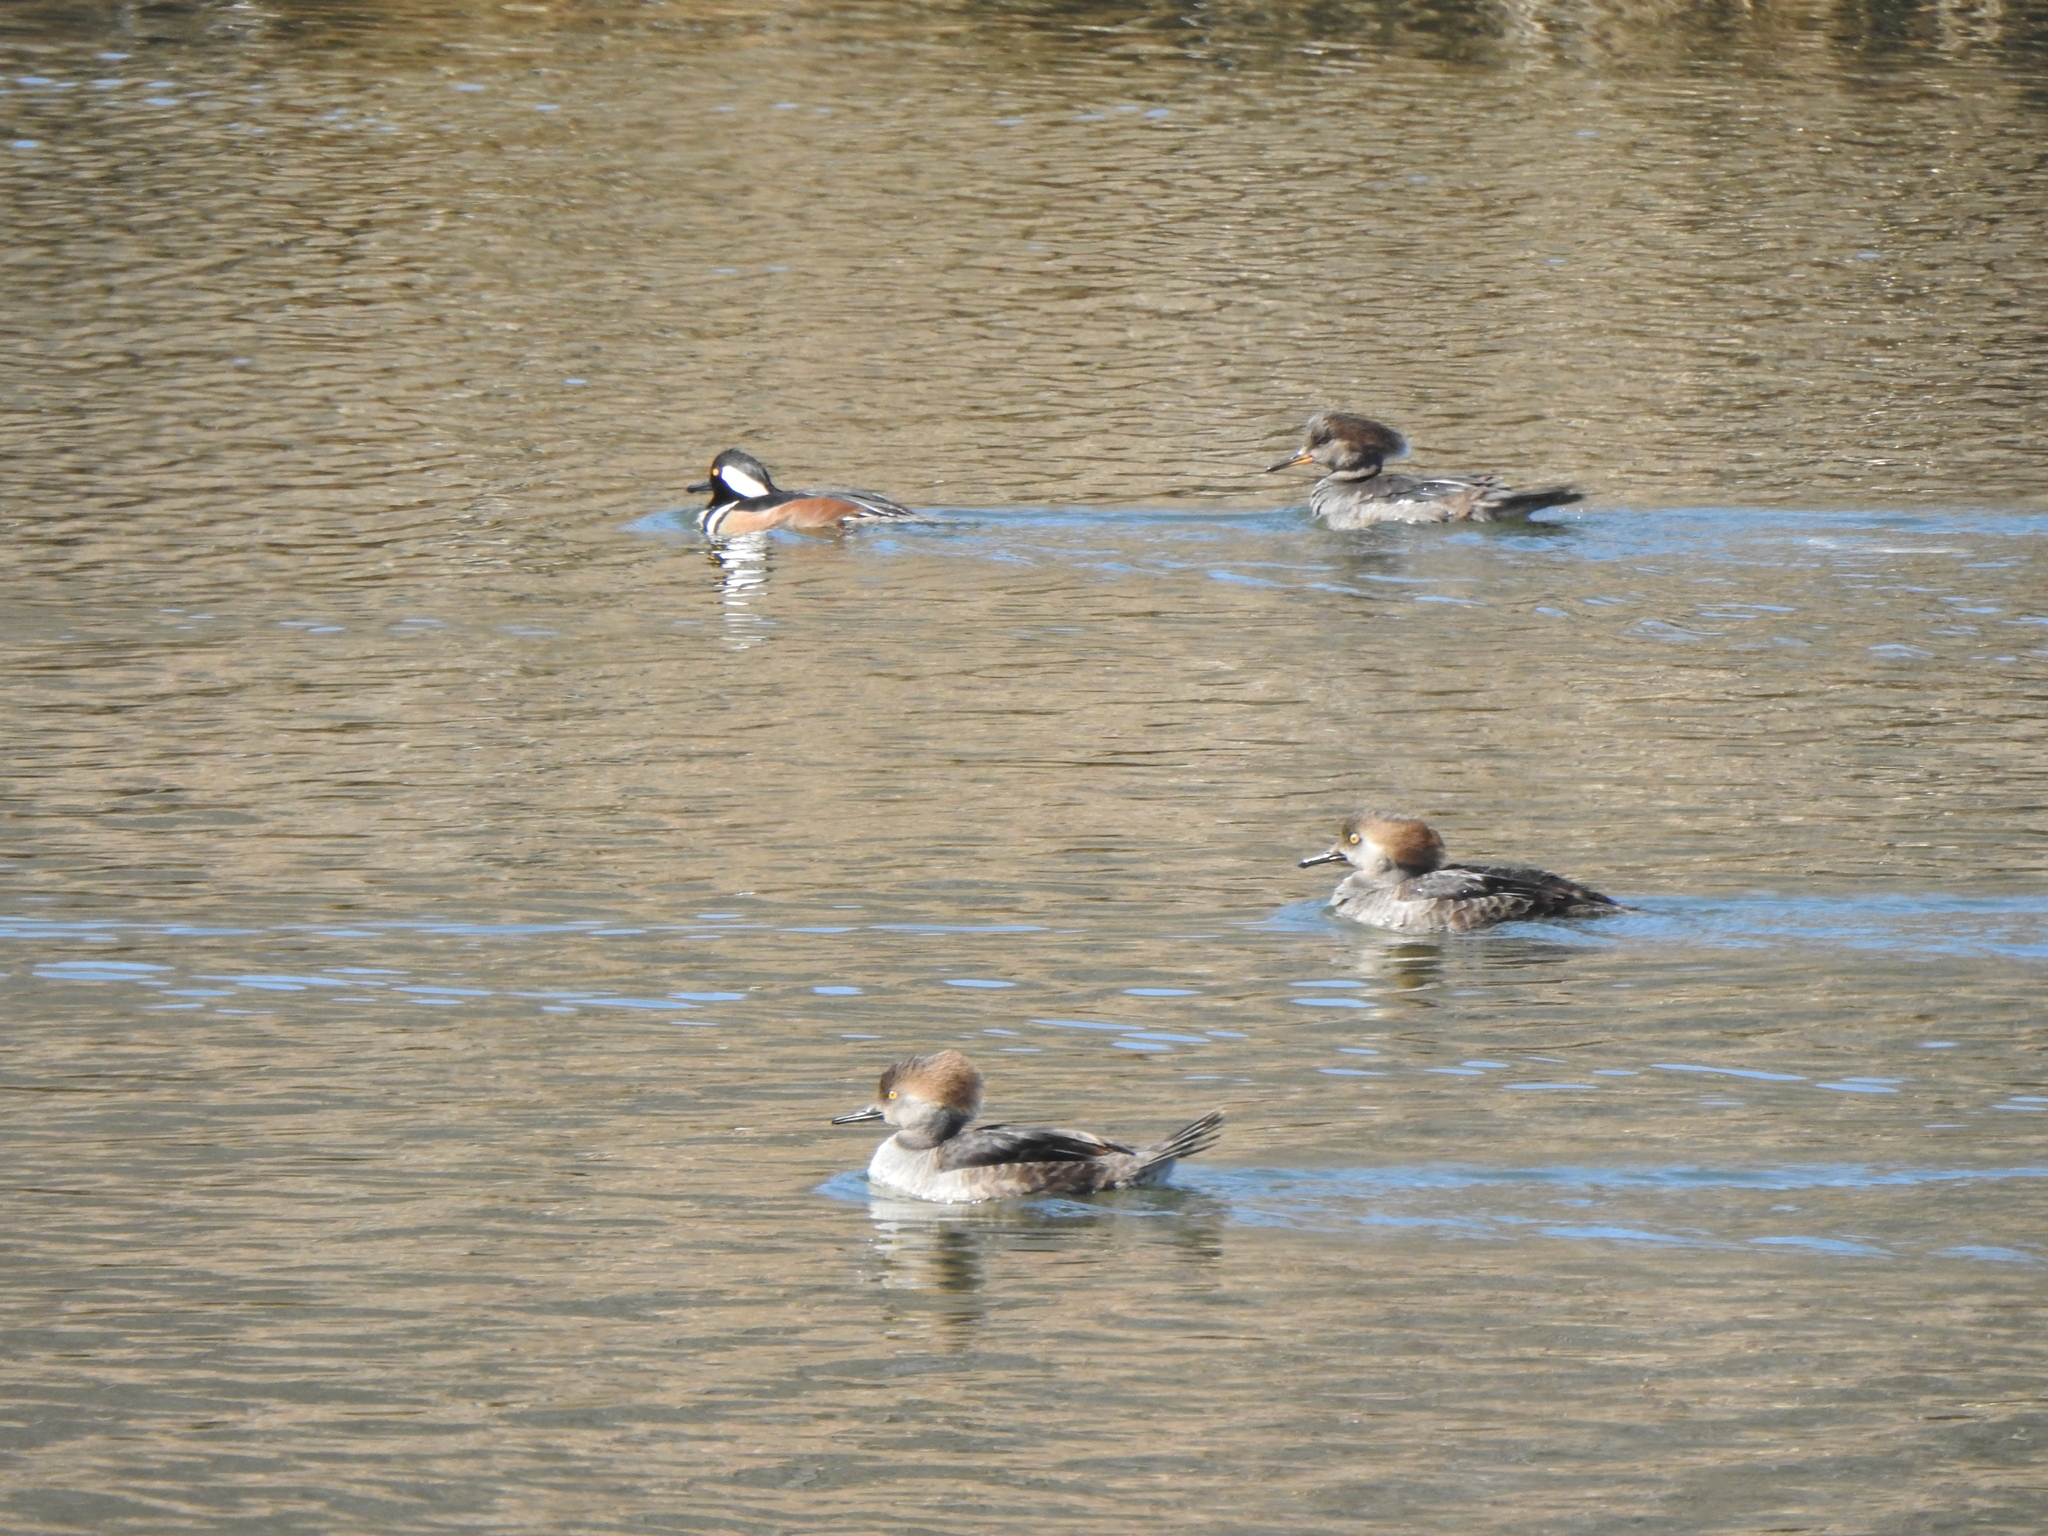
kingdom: Animalia
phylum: Chordata
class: Aves
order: Anseriformes
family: Anatidae
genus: Lophodytes
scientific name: Lophodytes cucullatus
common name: Hooded merganser
